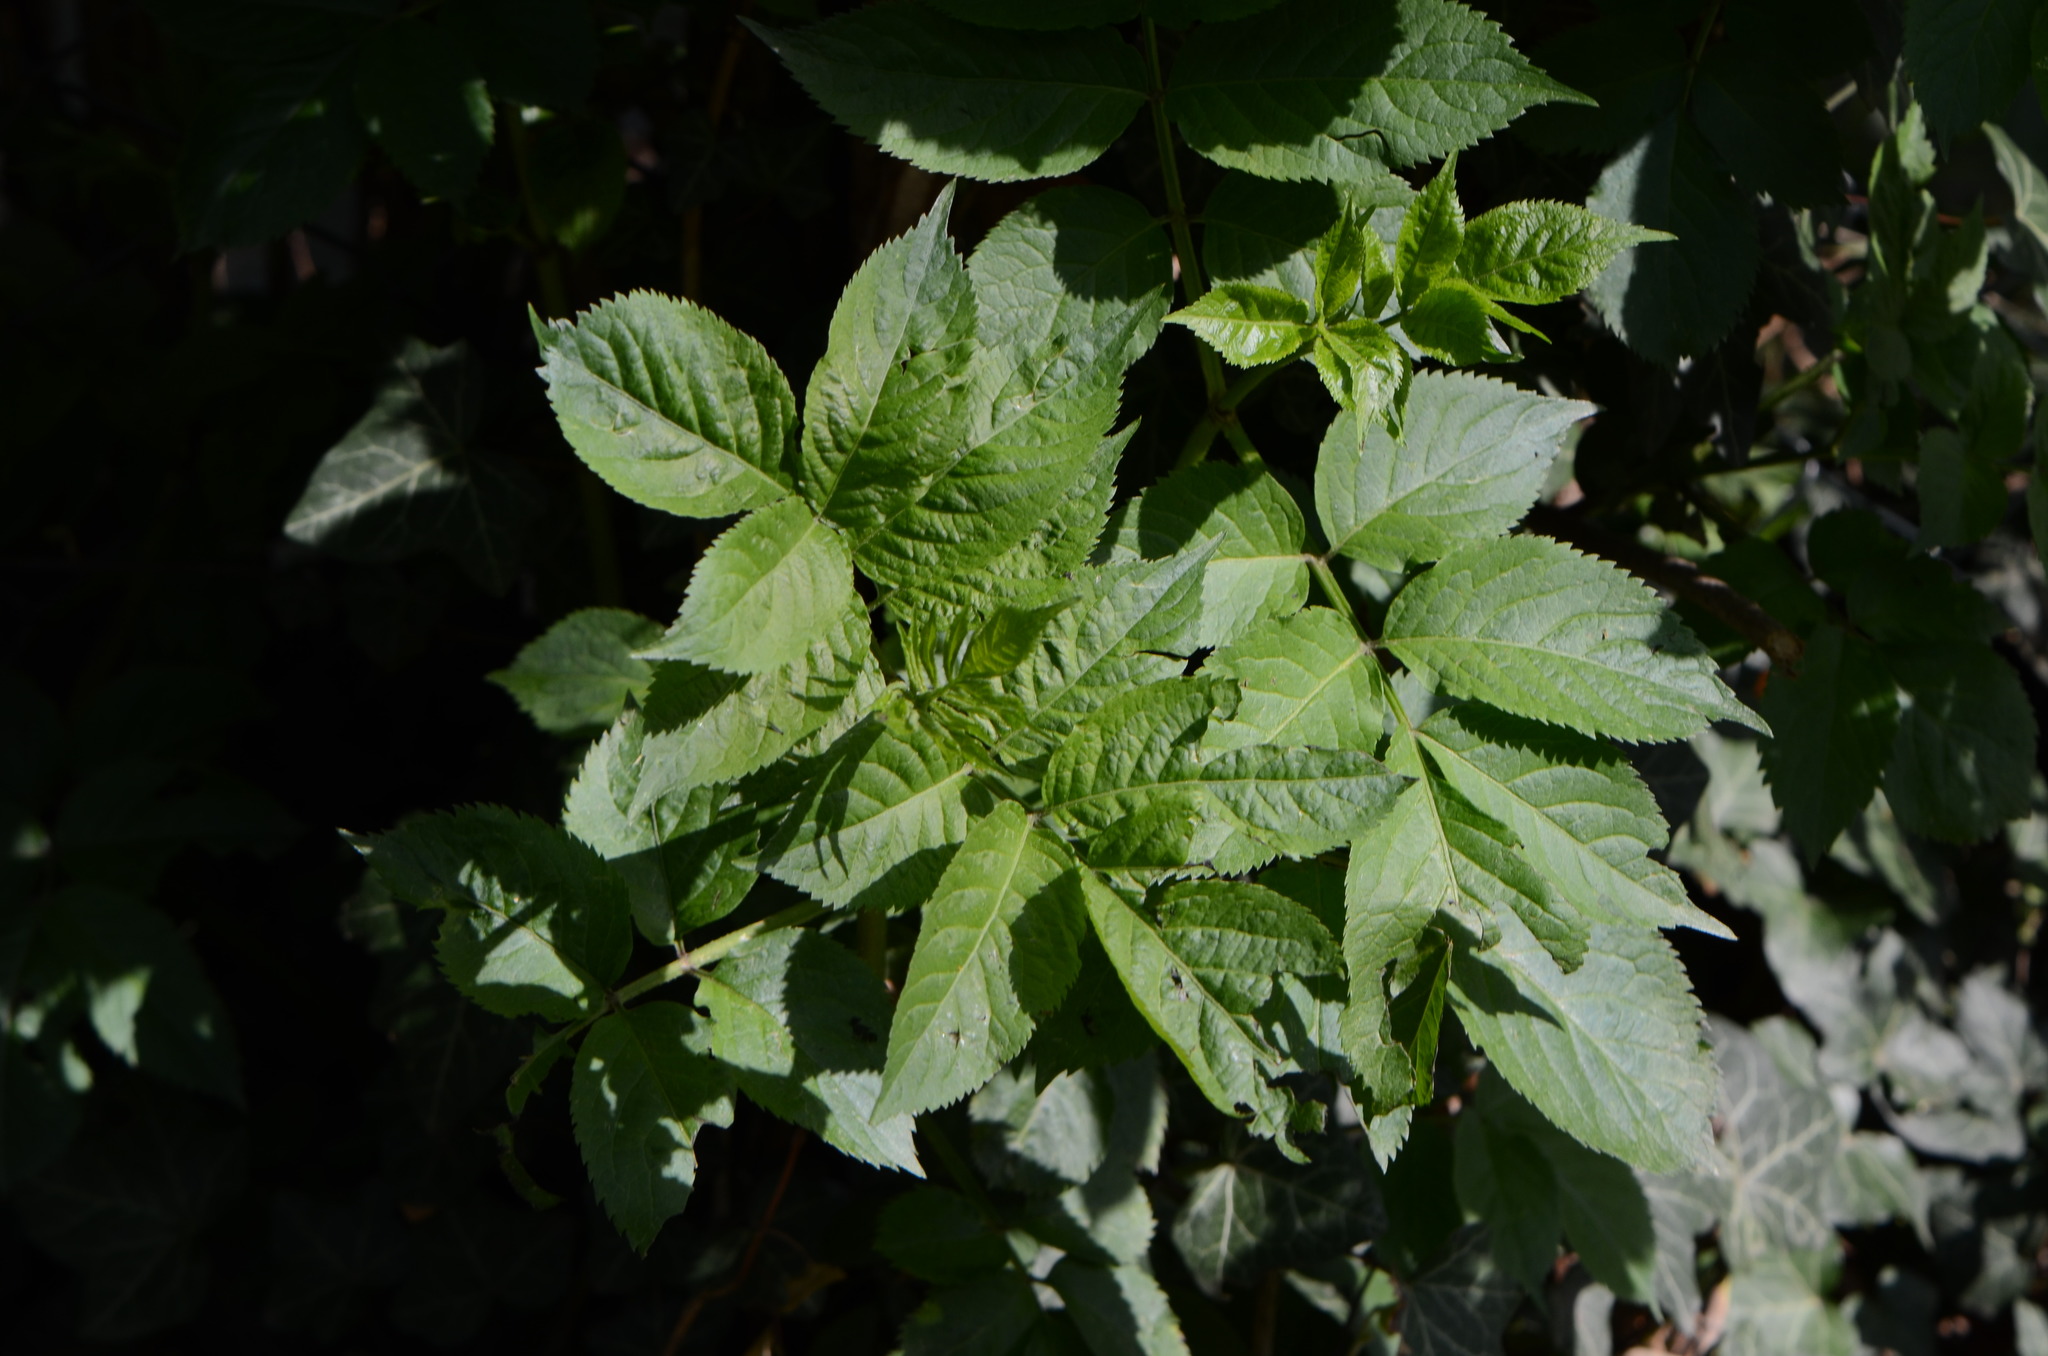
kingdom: Plantae
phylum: Tracheophyta
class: Magnoliopsida
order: Dipsacales
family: Viburnaceae
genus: Sambucus
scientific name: Sambucus nigra
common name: Elder
